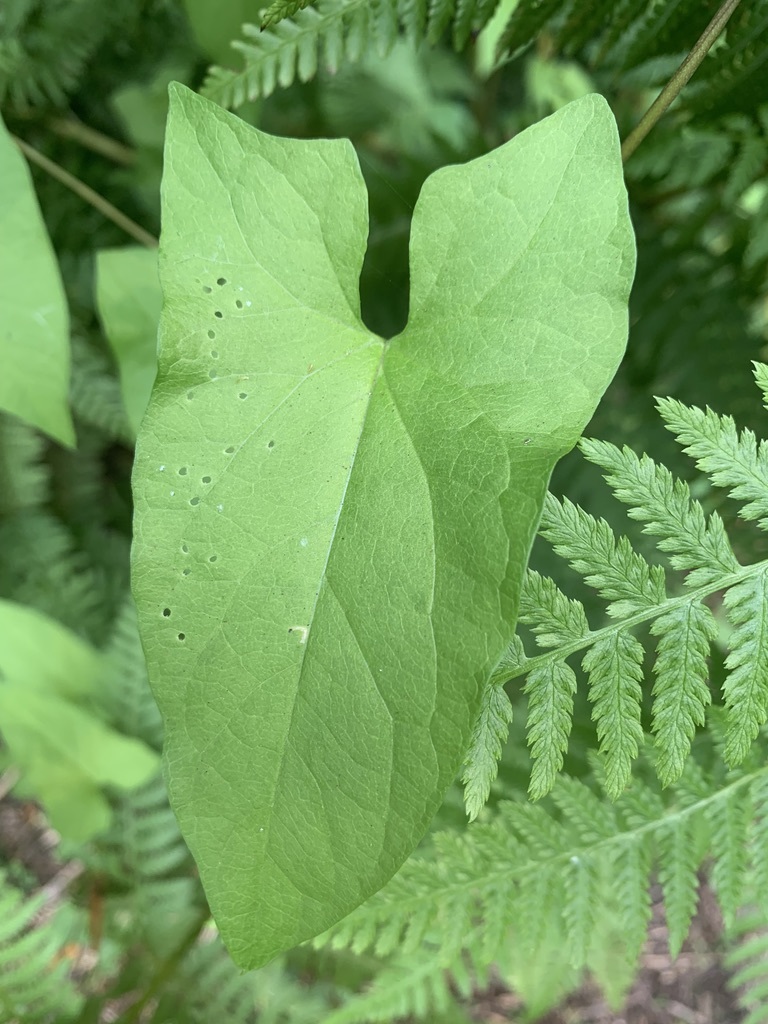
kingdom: Plantae
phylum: Tracheophyta
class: Magnoliopsida
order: Solanales
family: Convolvulaceae
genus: Calystegia
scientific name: Calystegia
